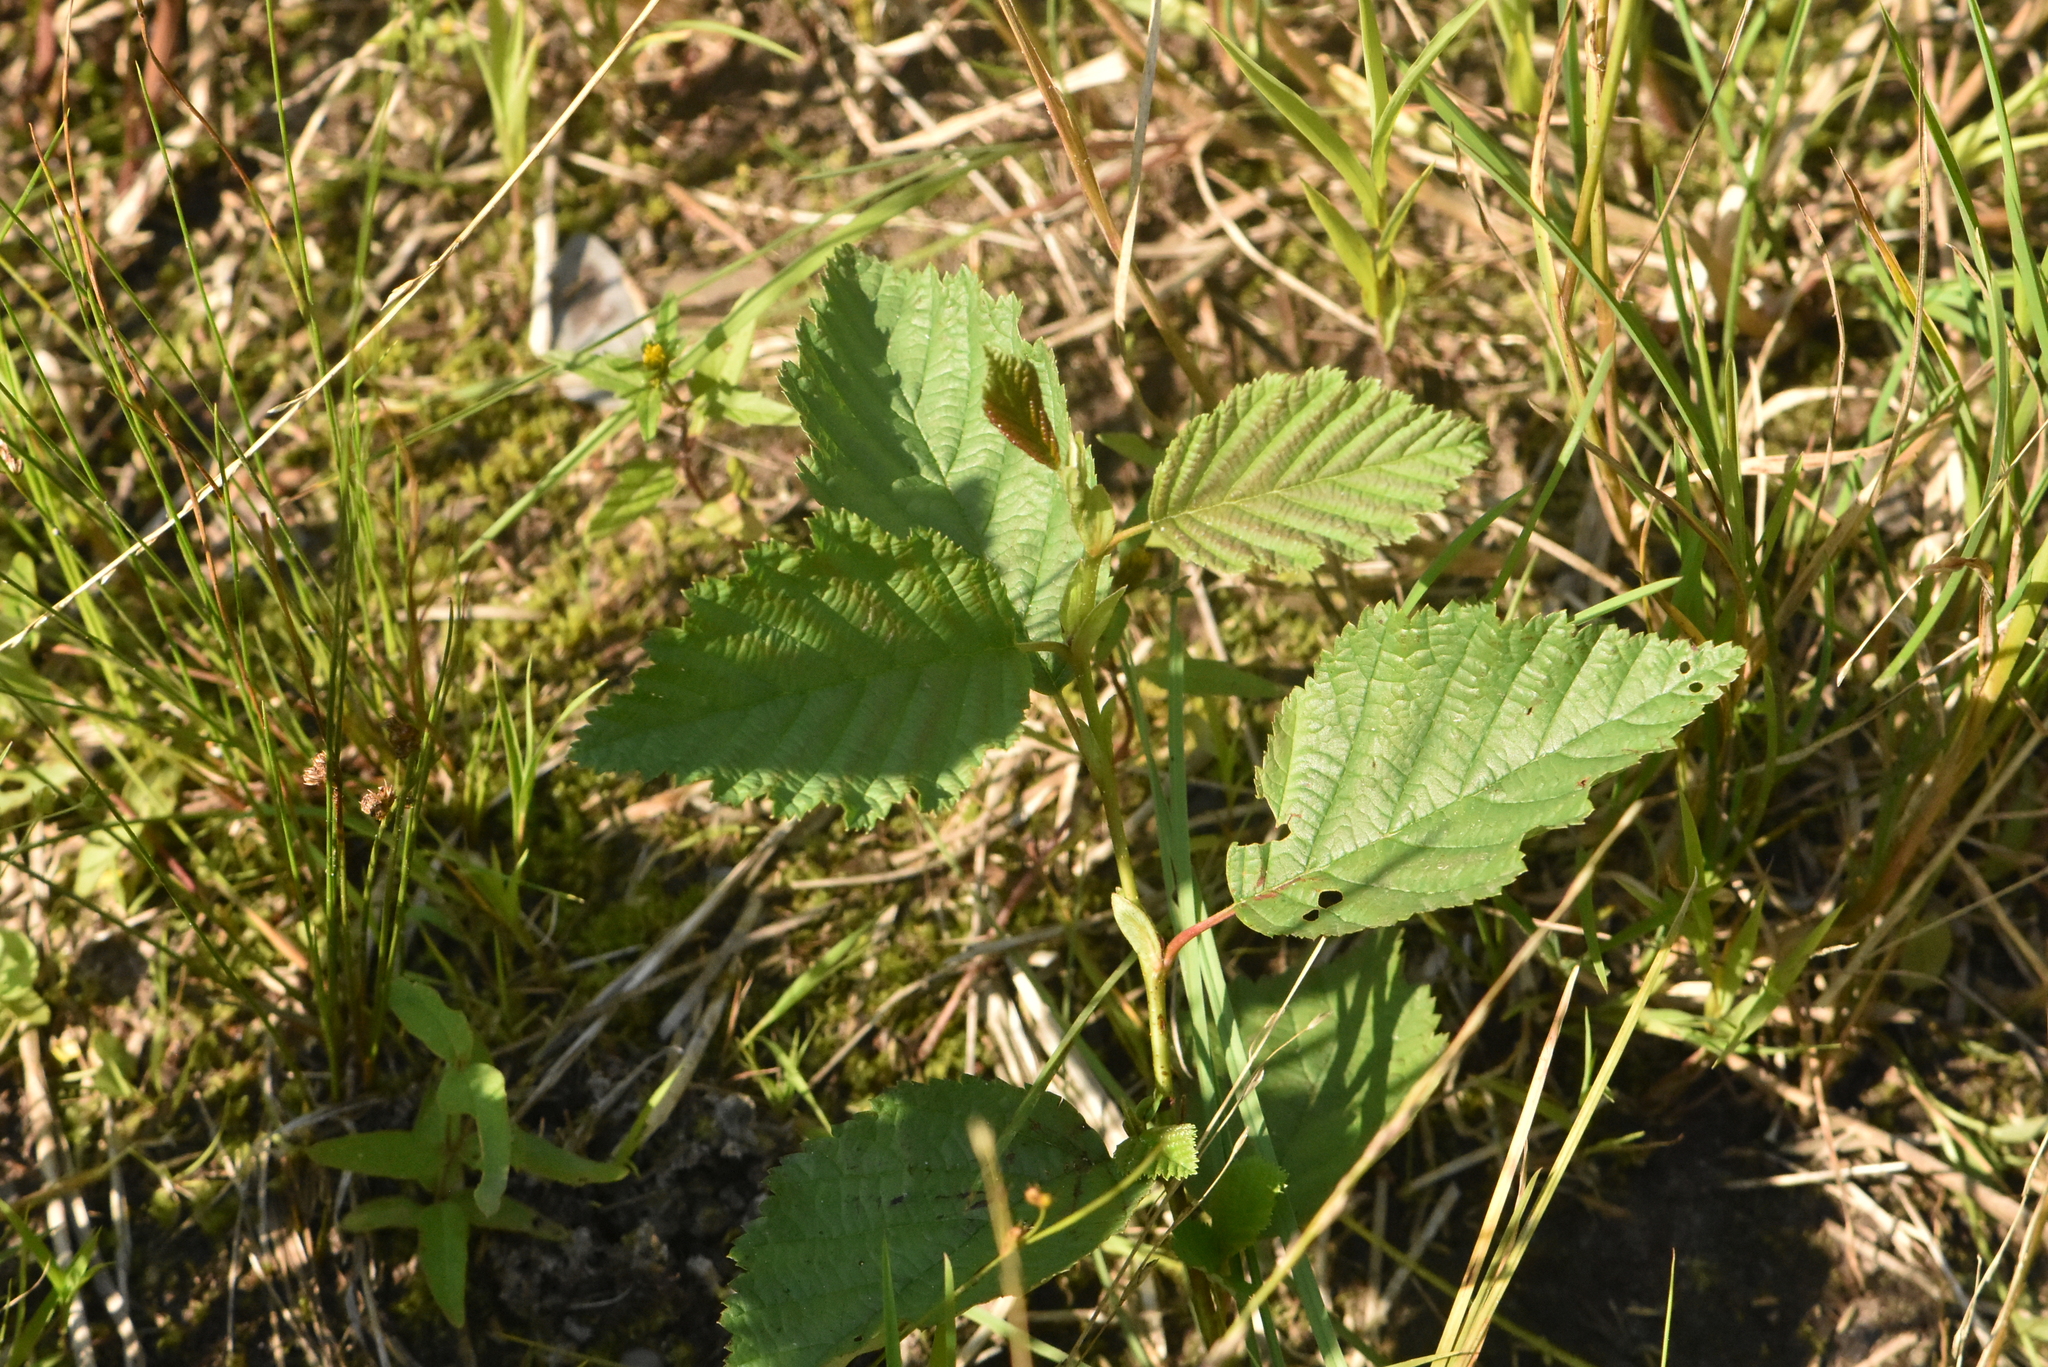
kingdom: Plantae
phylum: Tracheophyta
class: Magnoliopsida
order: Fagales
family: Betulaceae
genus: Alnus
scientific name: Alnus incana
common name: Grey alder
